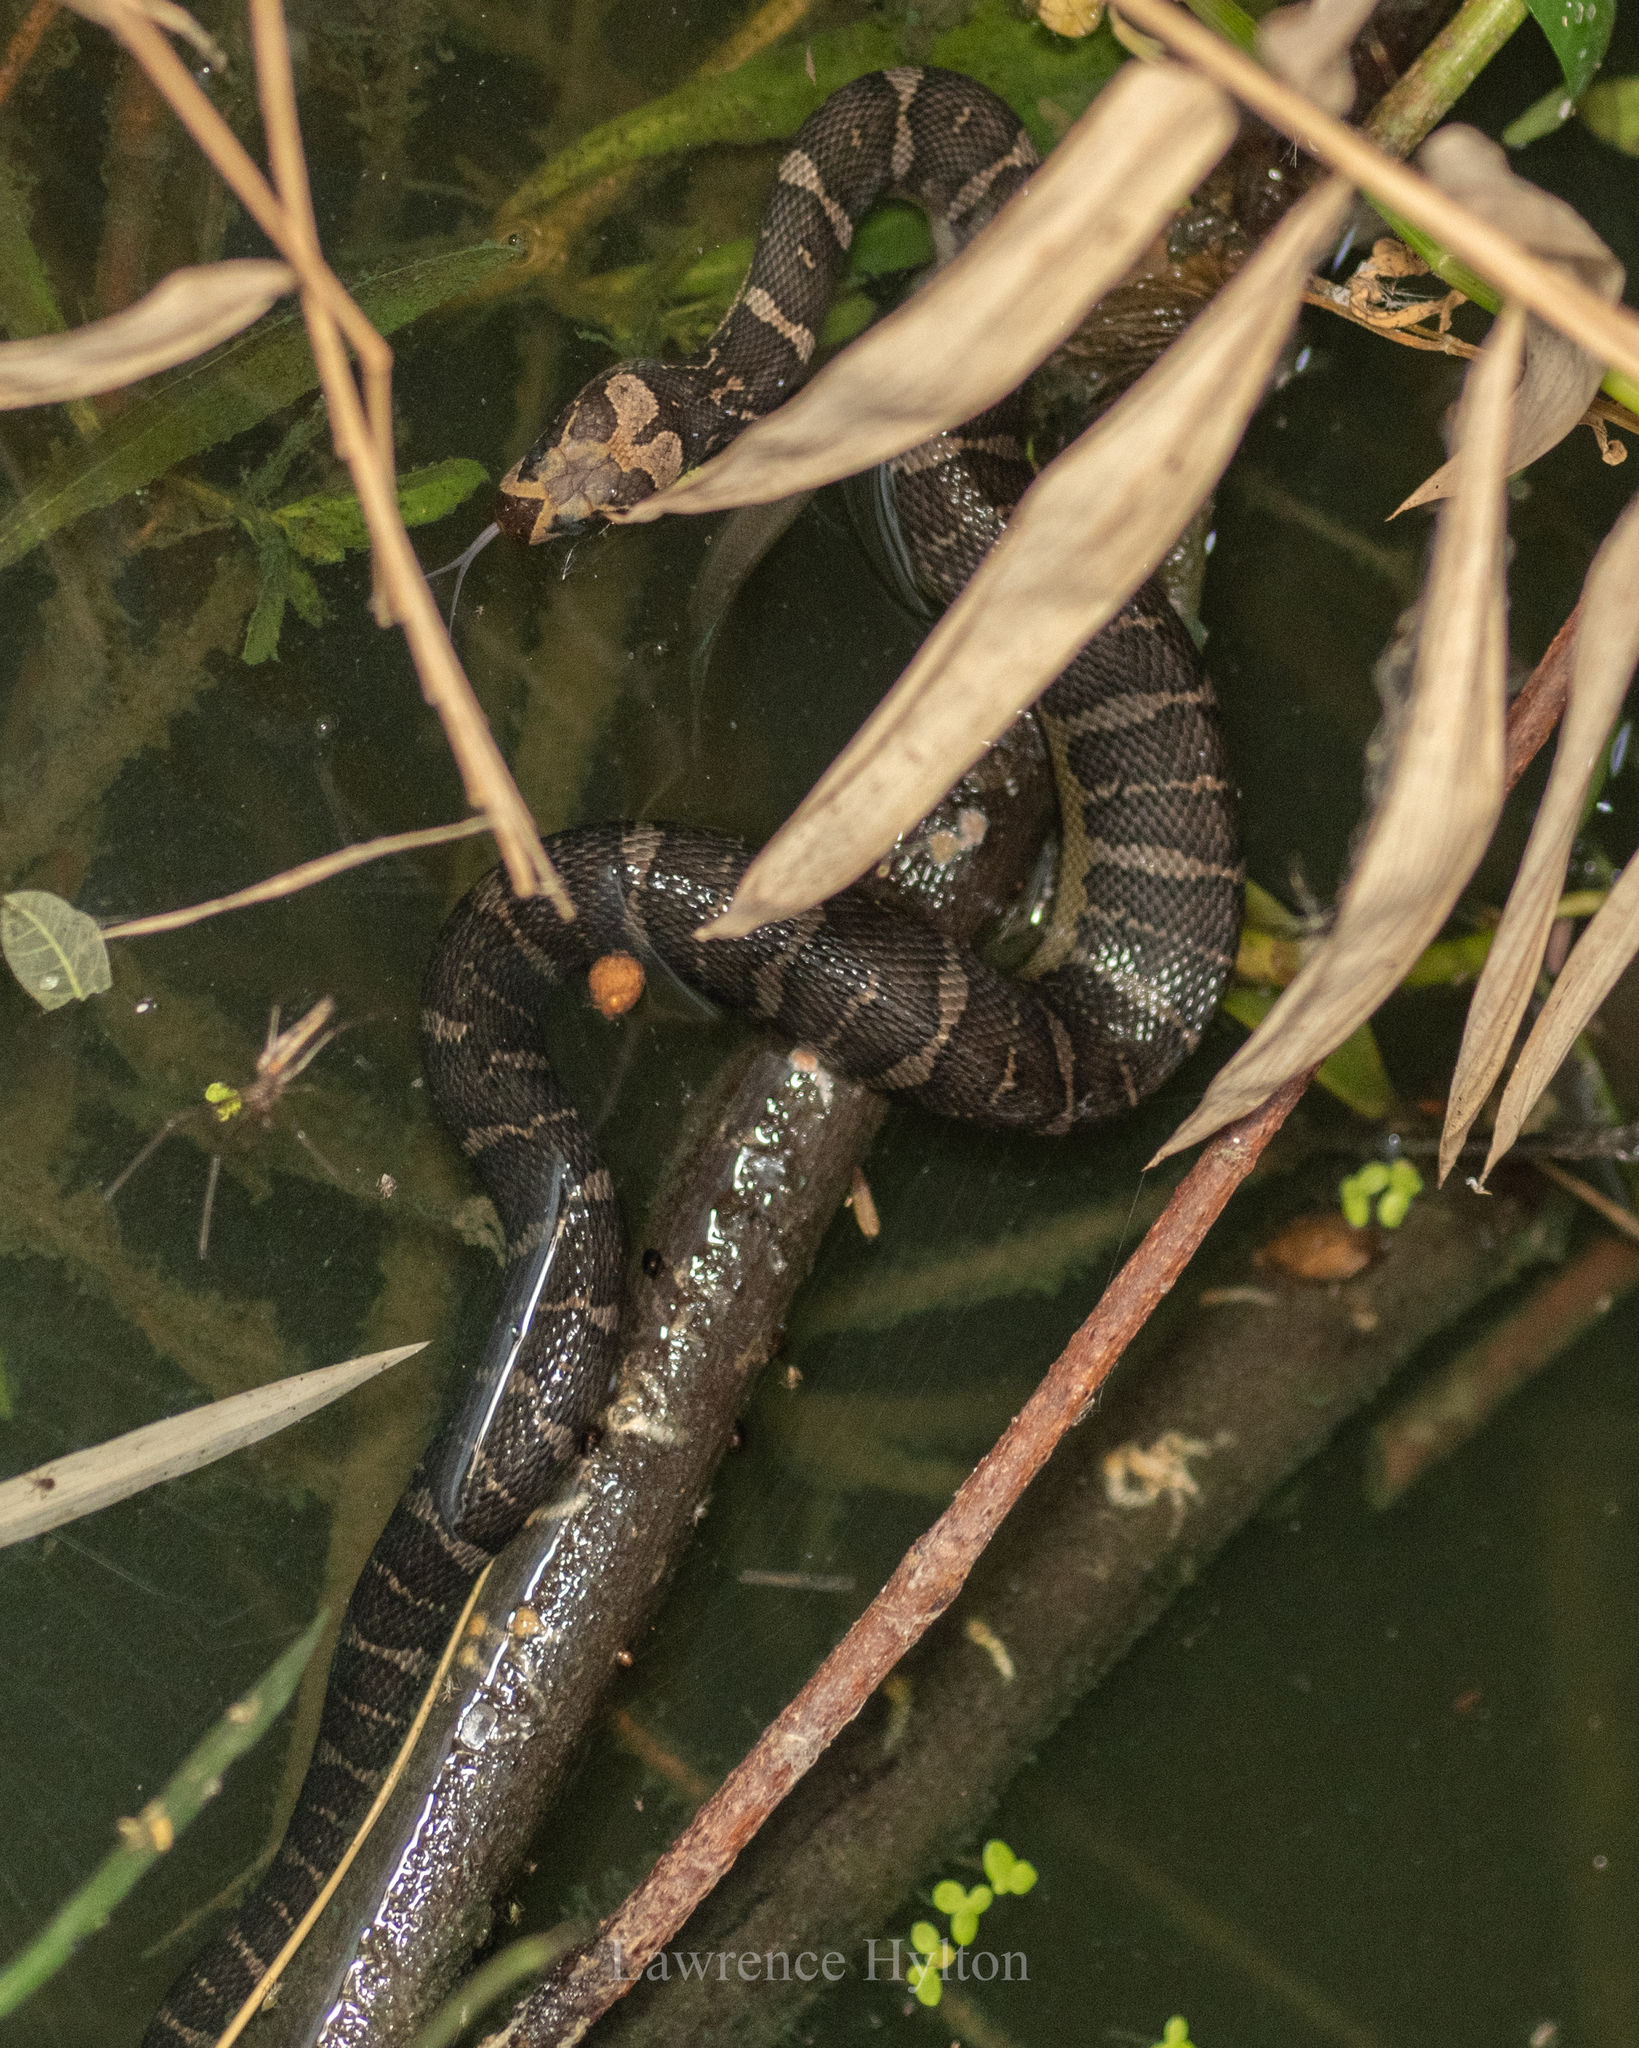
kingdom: Animalia
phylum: Chordata
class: Squamata
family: Homalopsidae
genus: Homalopsis
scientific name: Homalopsis mereljcoxi
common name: Jack’s water snake
